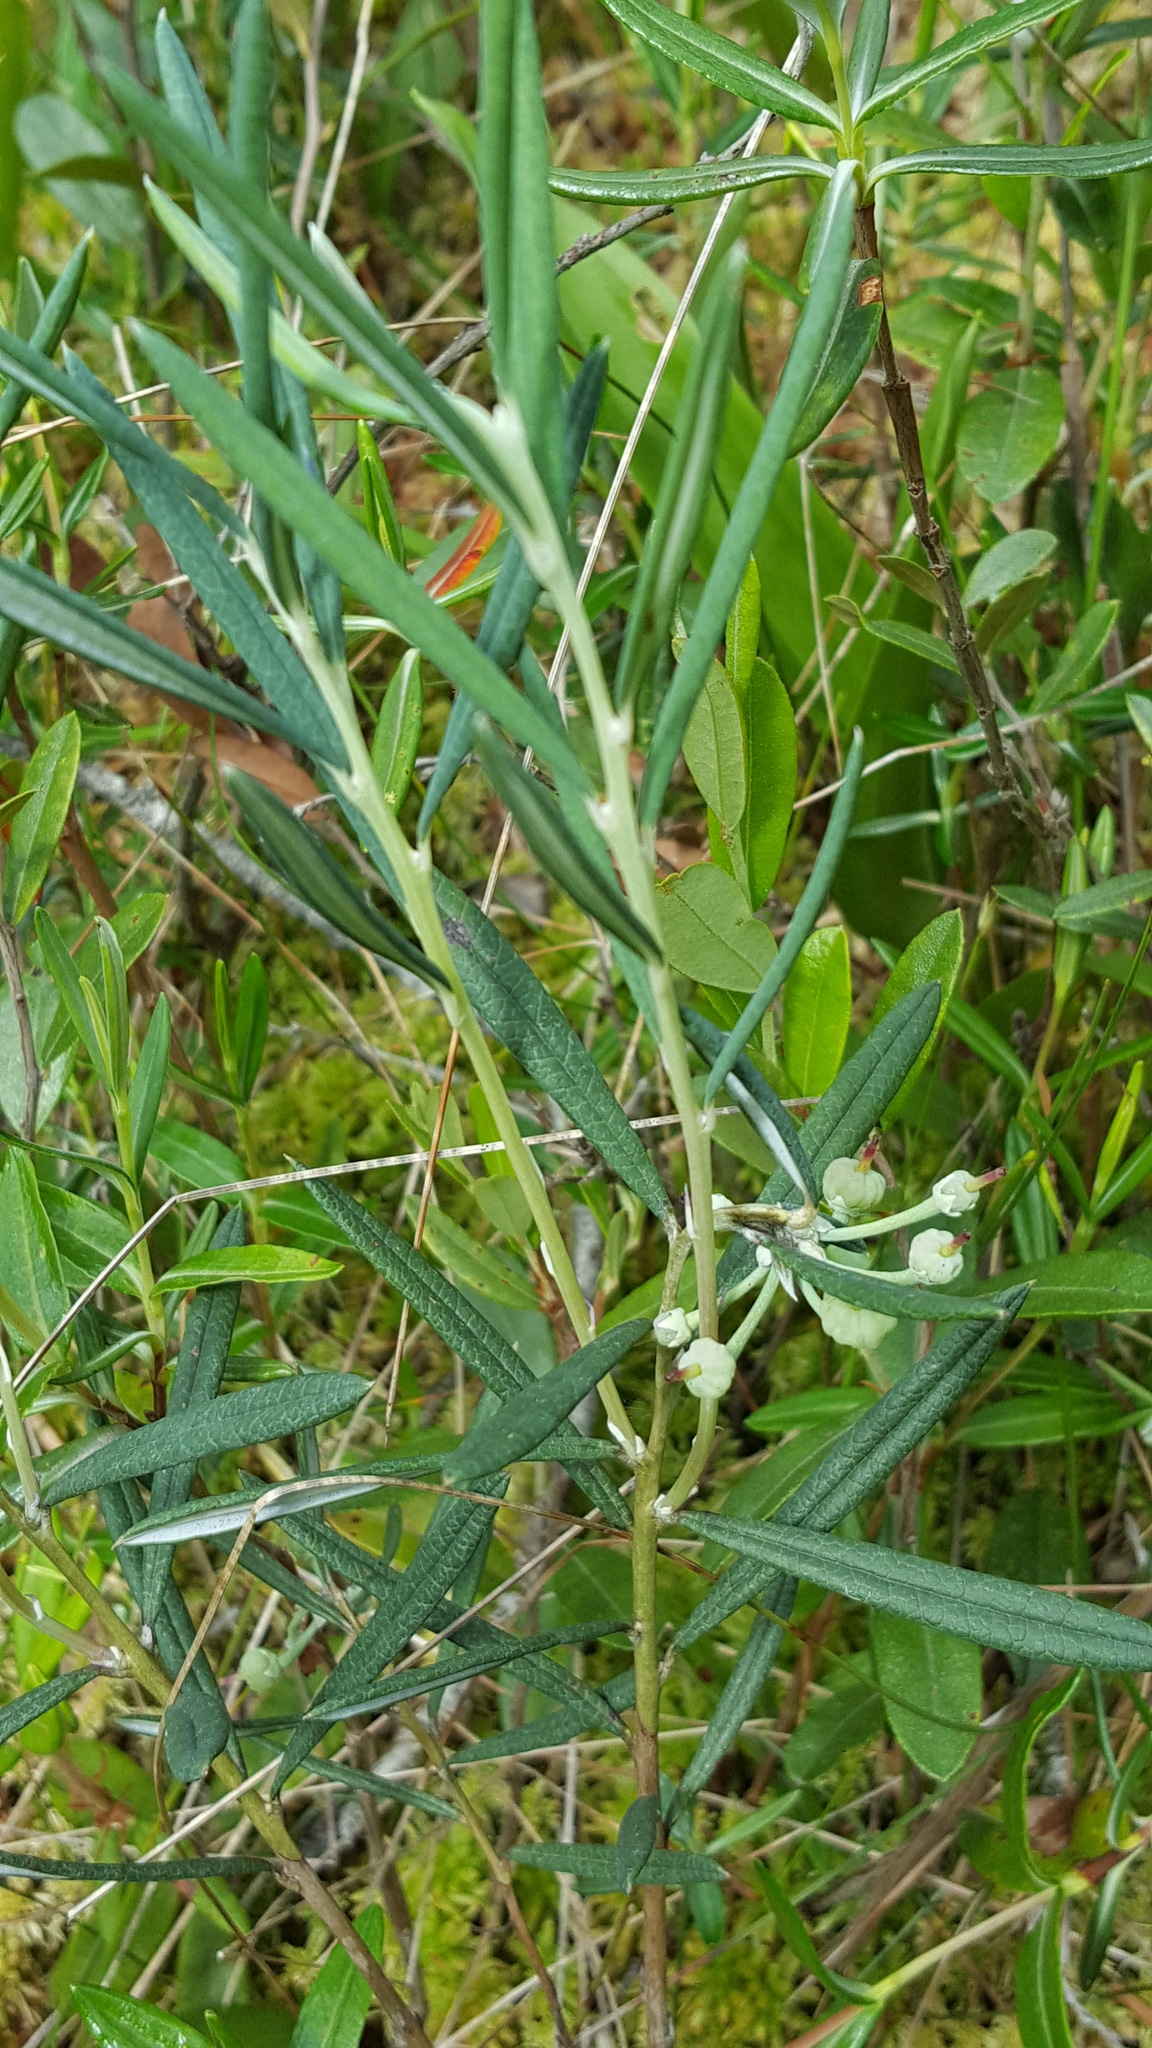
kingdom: Plantae
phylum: Tracheophyta
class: Magnoliopsida
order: Ericales
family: Ericaceae
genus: Andromeda
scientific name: Andromeda polifolia
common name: Bog-rosemary
